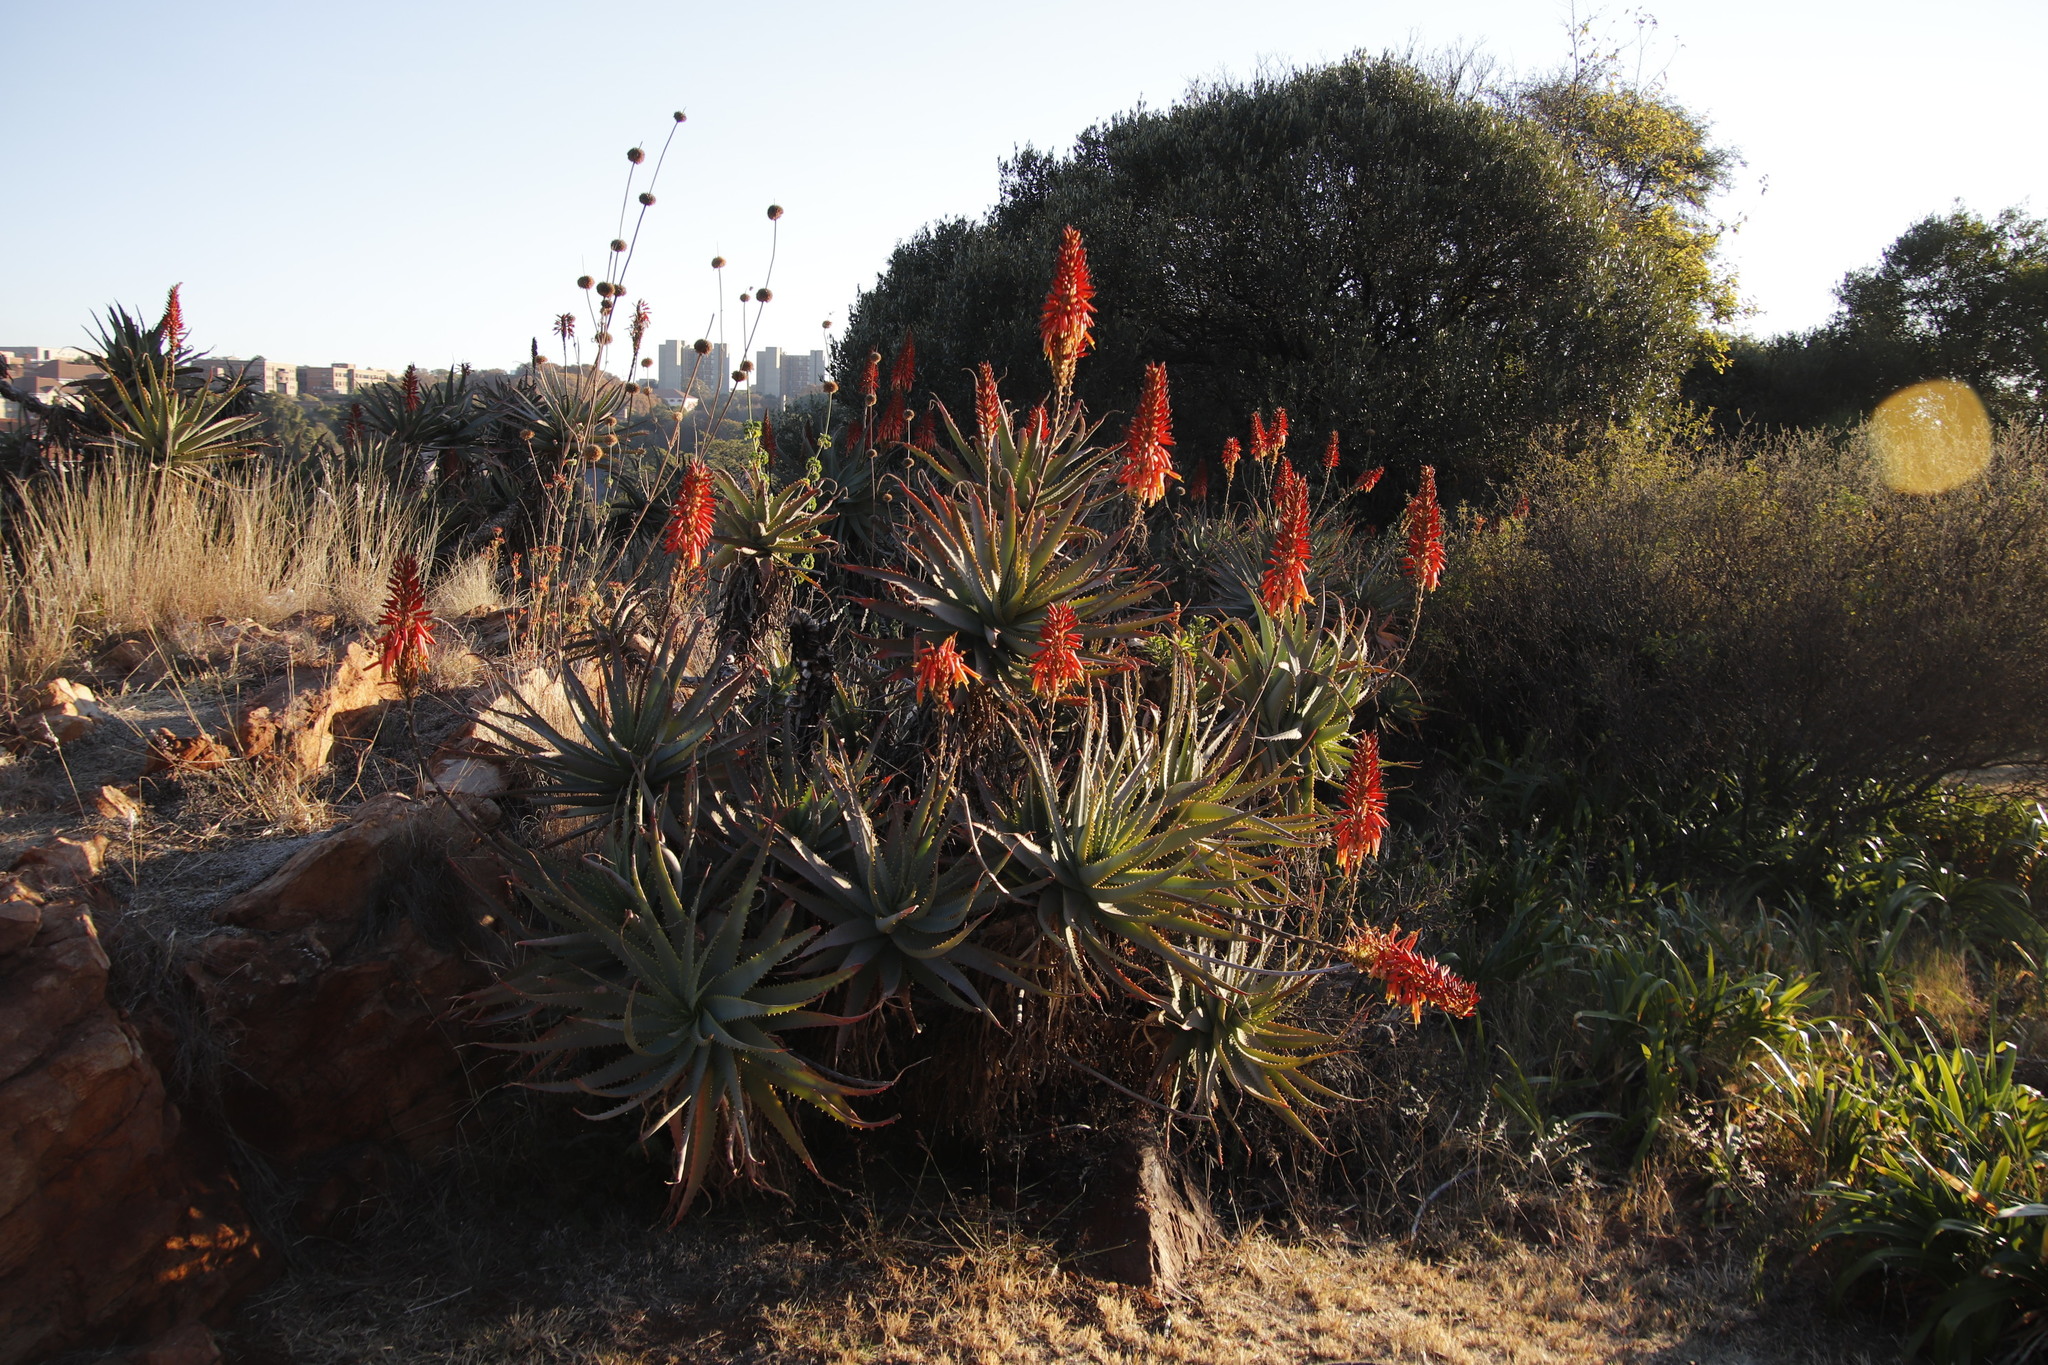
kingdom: Plantae
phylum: Tracheophyta
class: Liliopsida
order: Asparagales
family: Asphodelaceae
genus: Aloe
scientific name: Aloe arborescens
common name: Candelabra aloe
